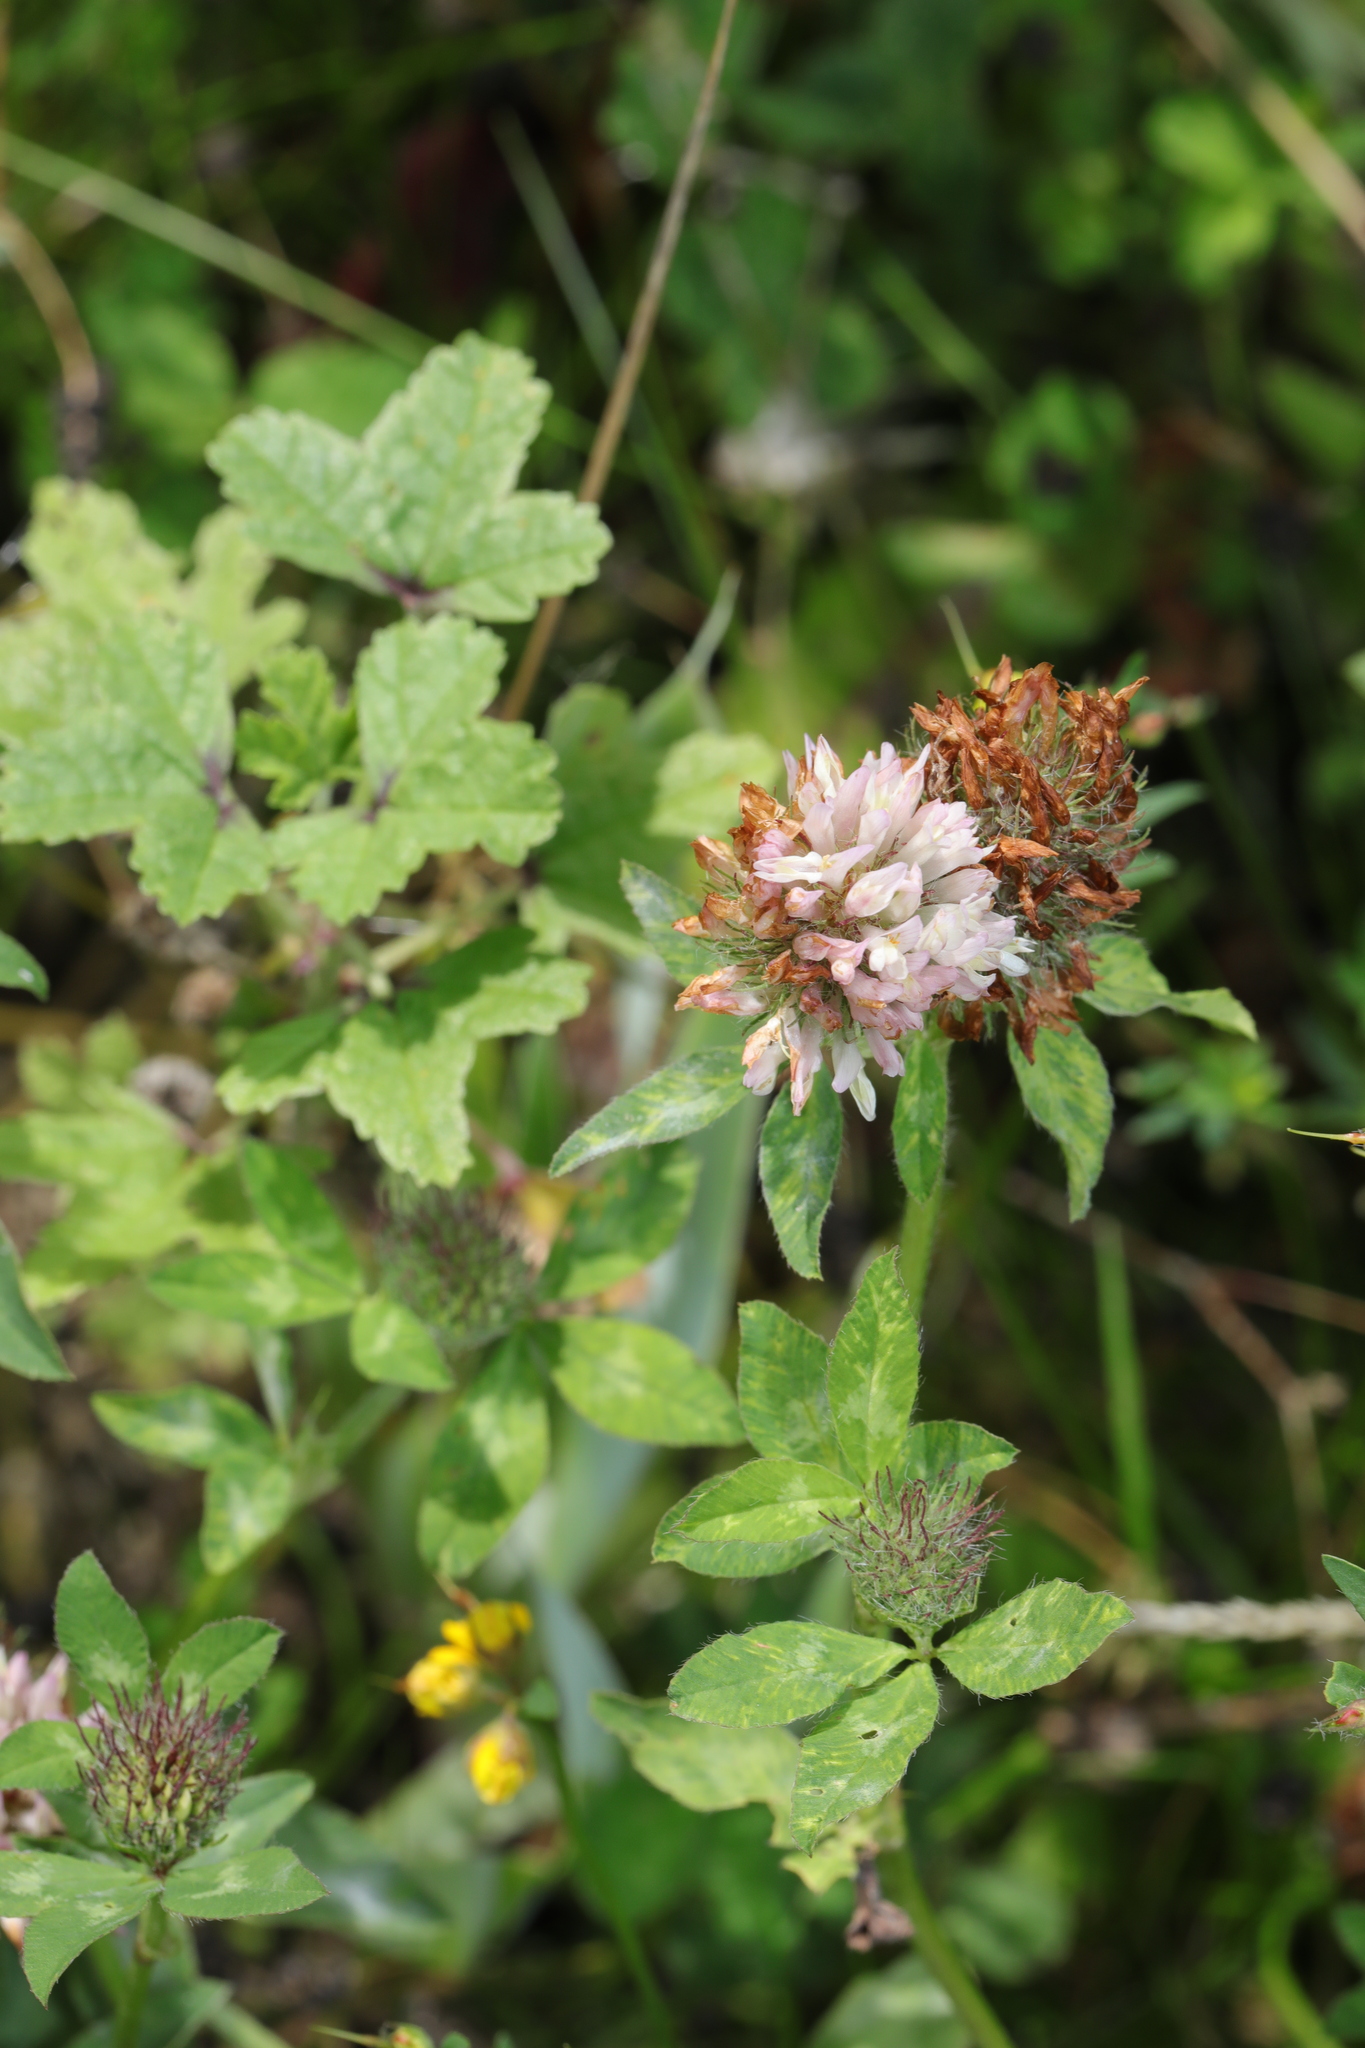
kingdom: Plantae
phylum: Tracheophyta
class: Magnoliopsida
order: Fabales
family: Fabaceae
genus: Trifolium
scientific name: Trifolium pratense
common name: Red clover
